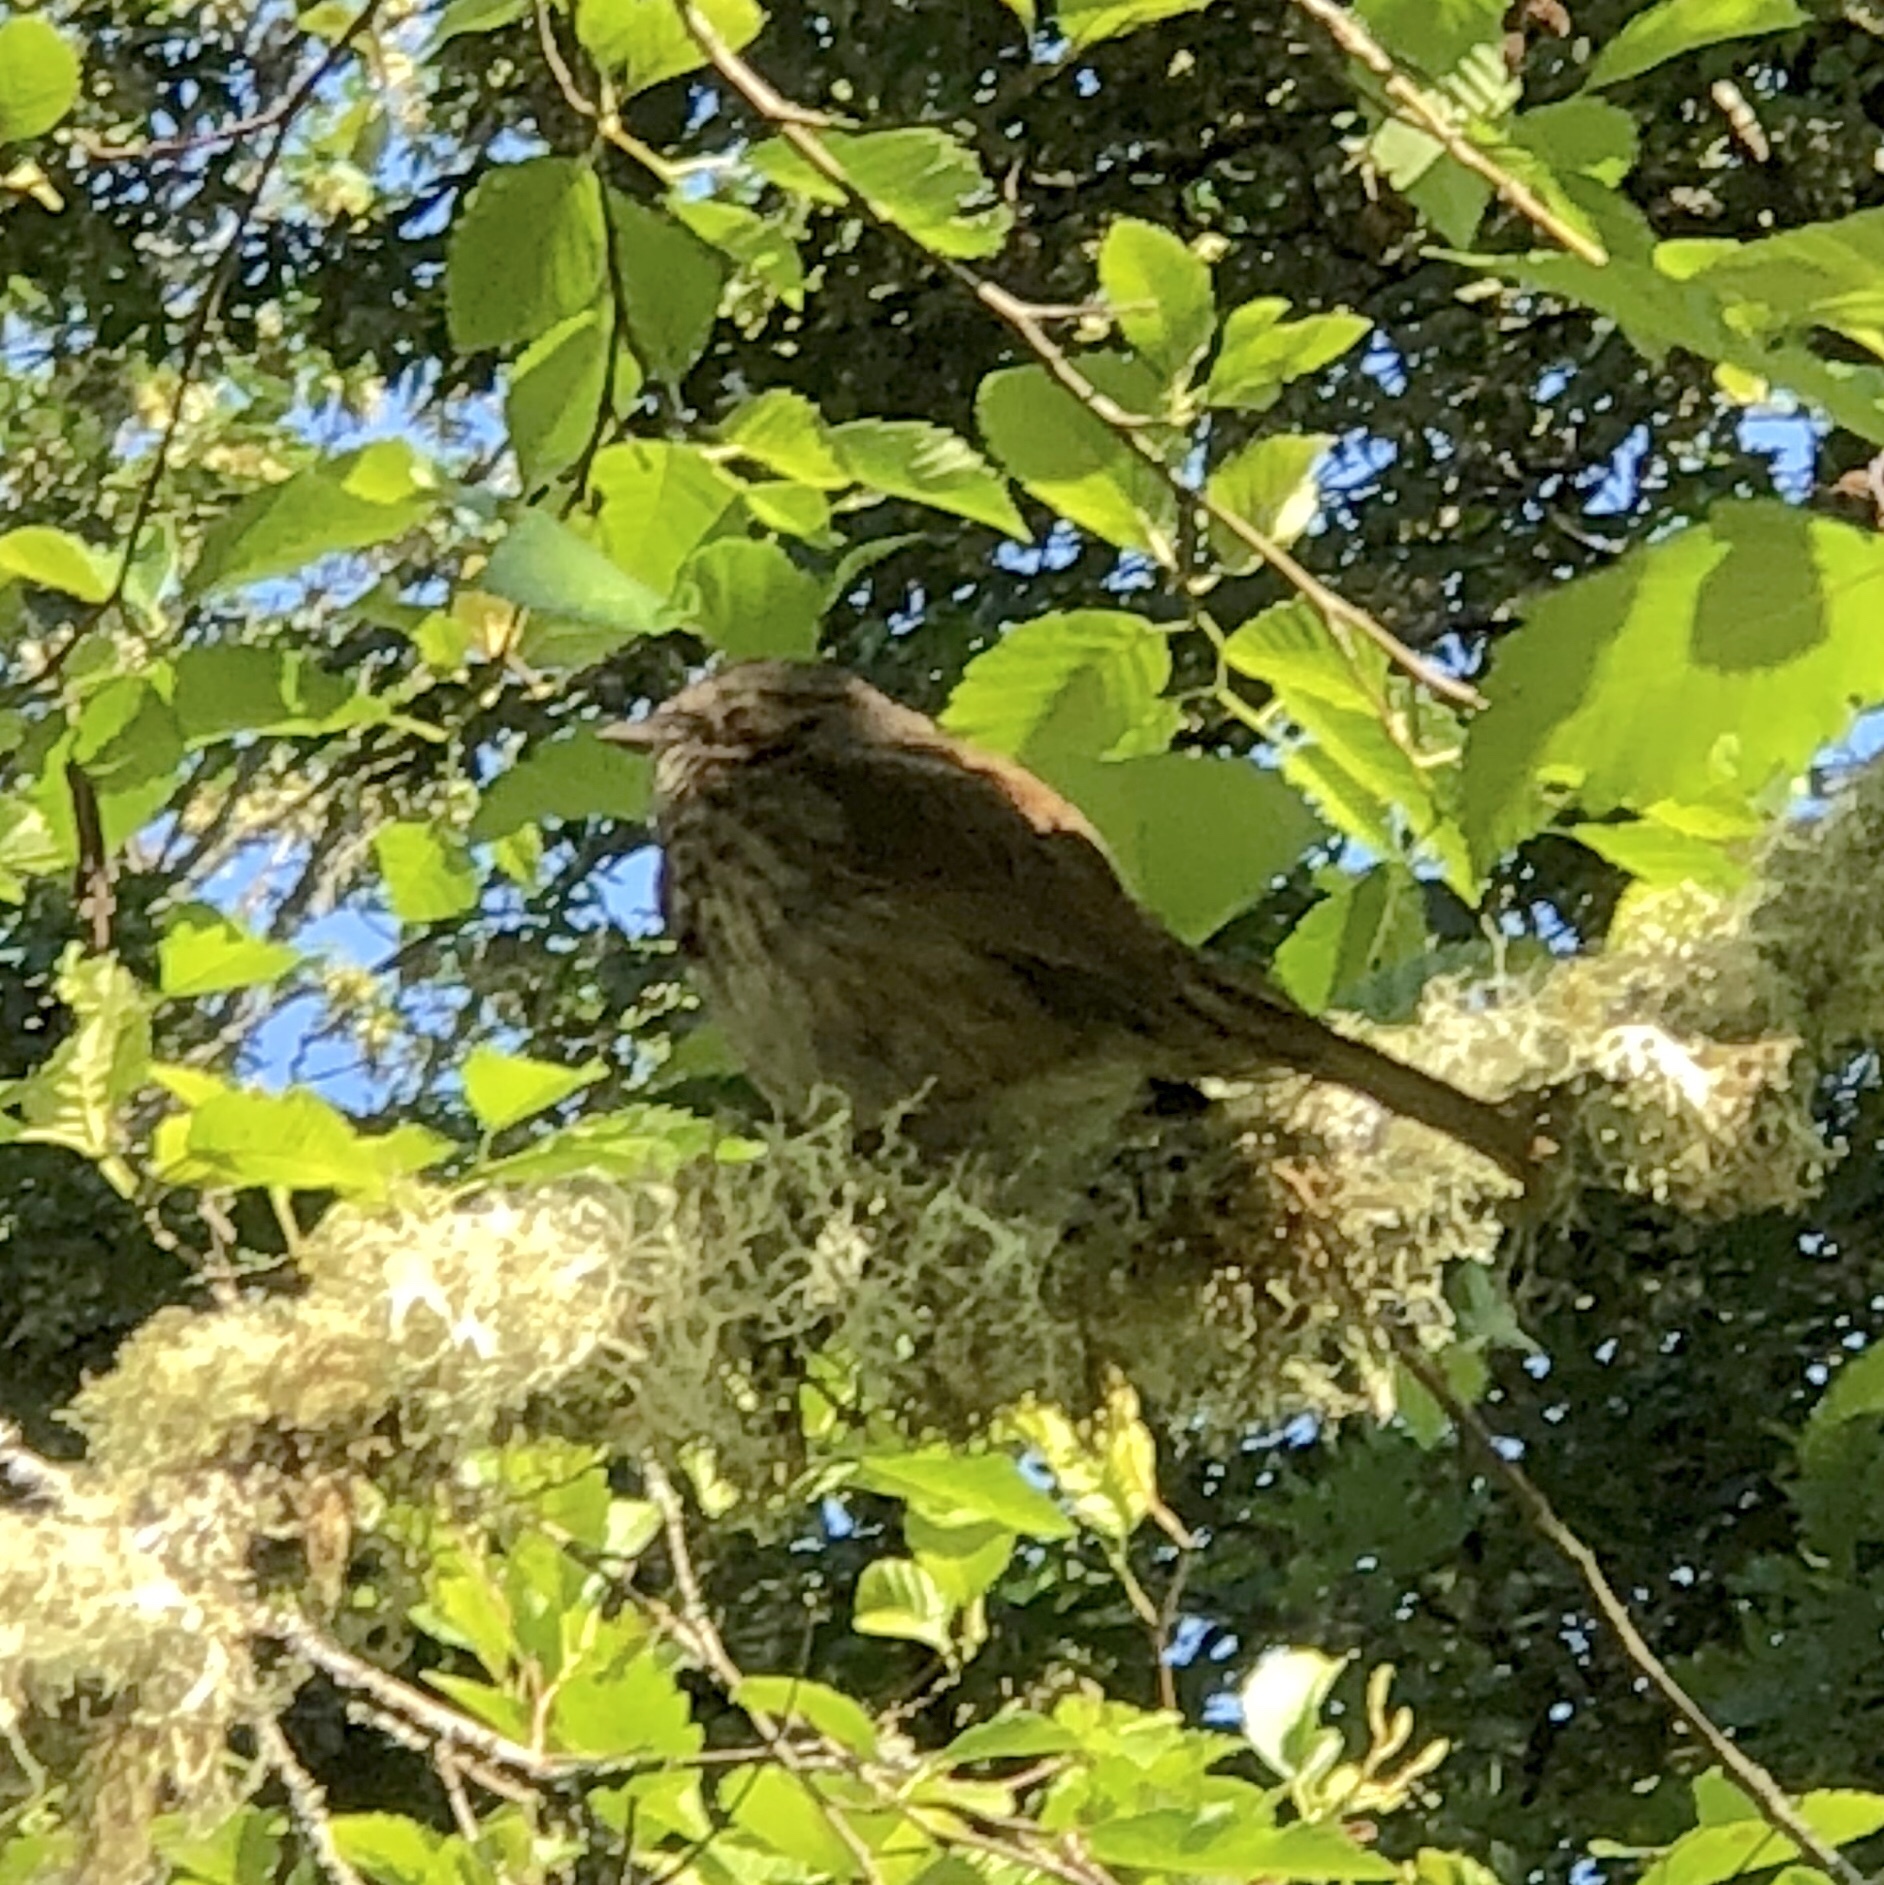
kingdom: Animalia
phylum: Chordata
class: Aves
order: Passeriformes
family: Passerellidae
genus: Melospiza
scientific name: Melospiza melodia
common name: Song sparrow
